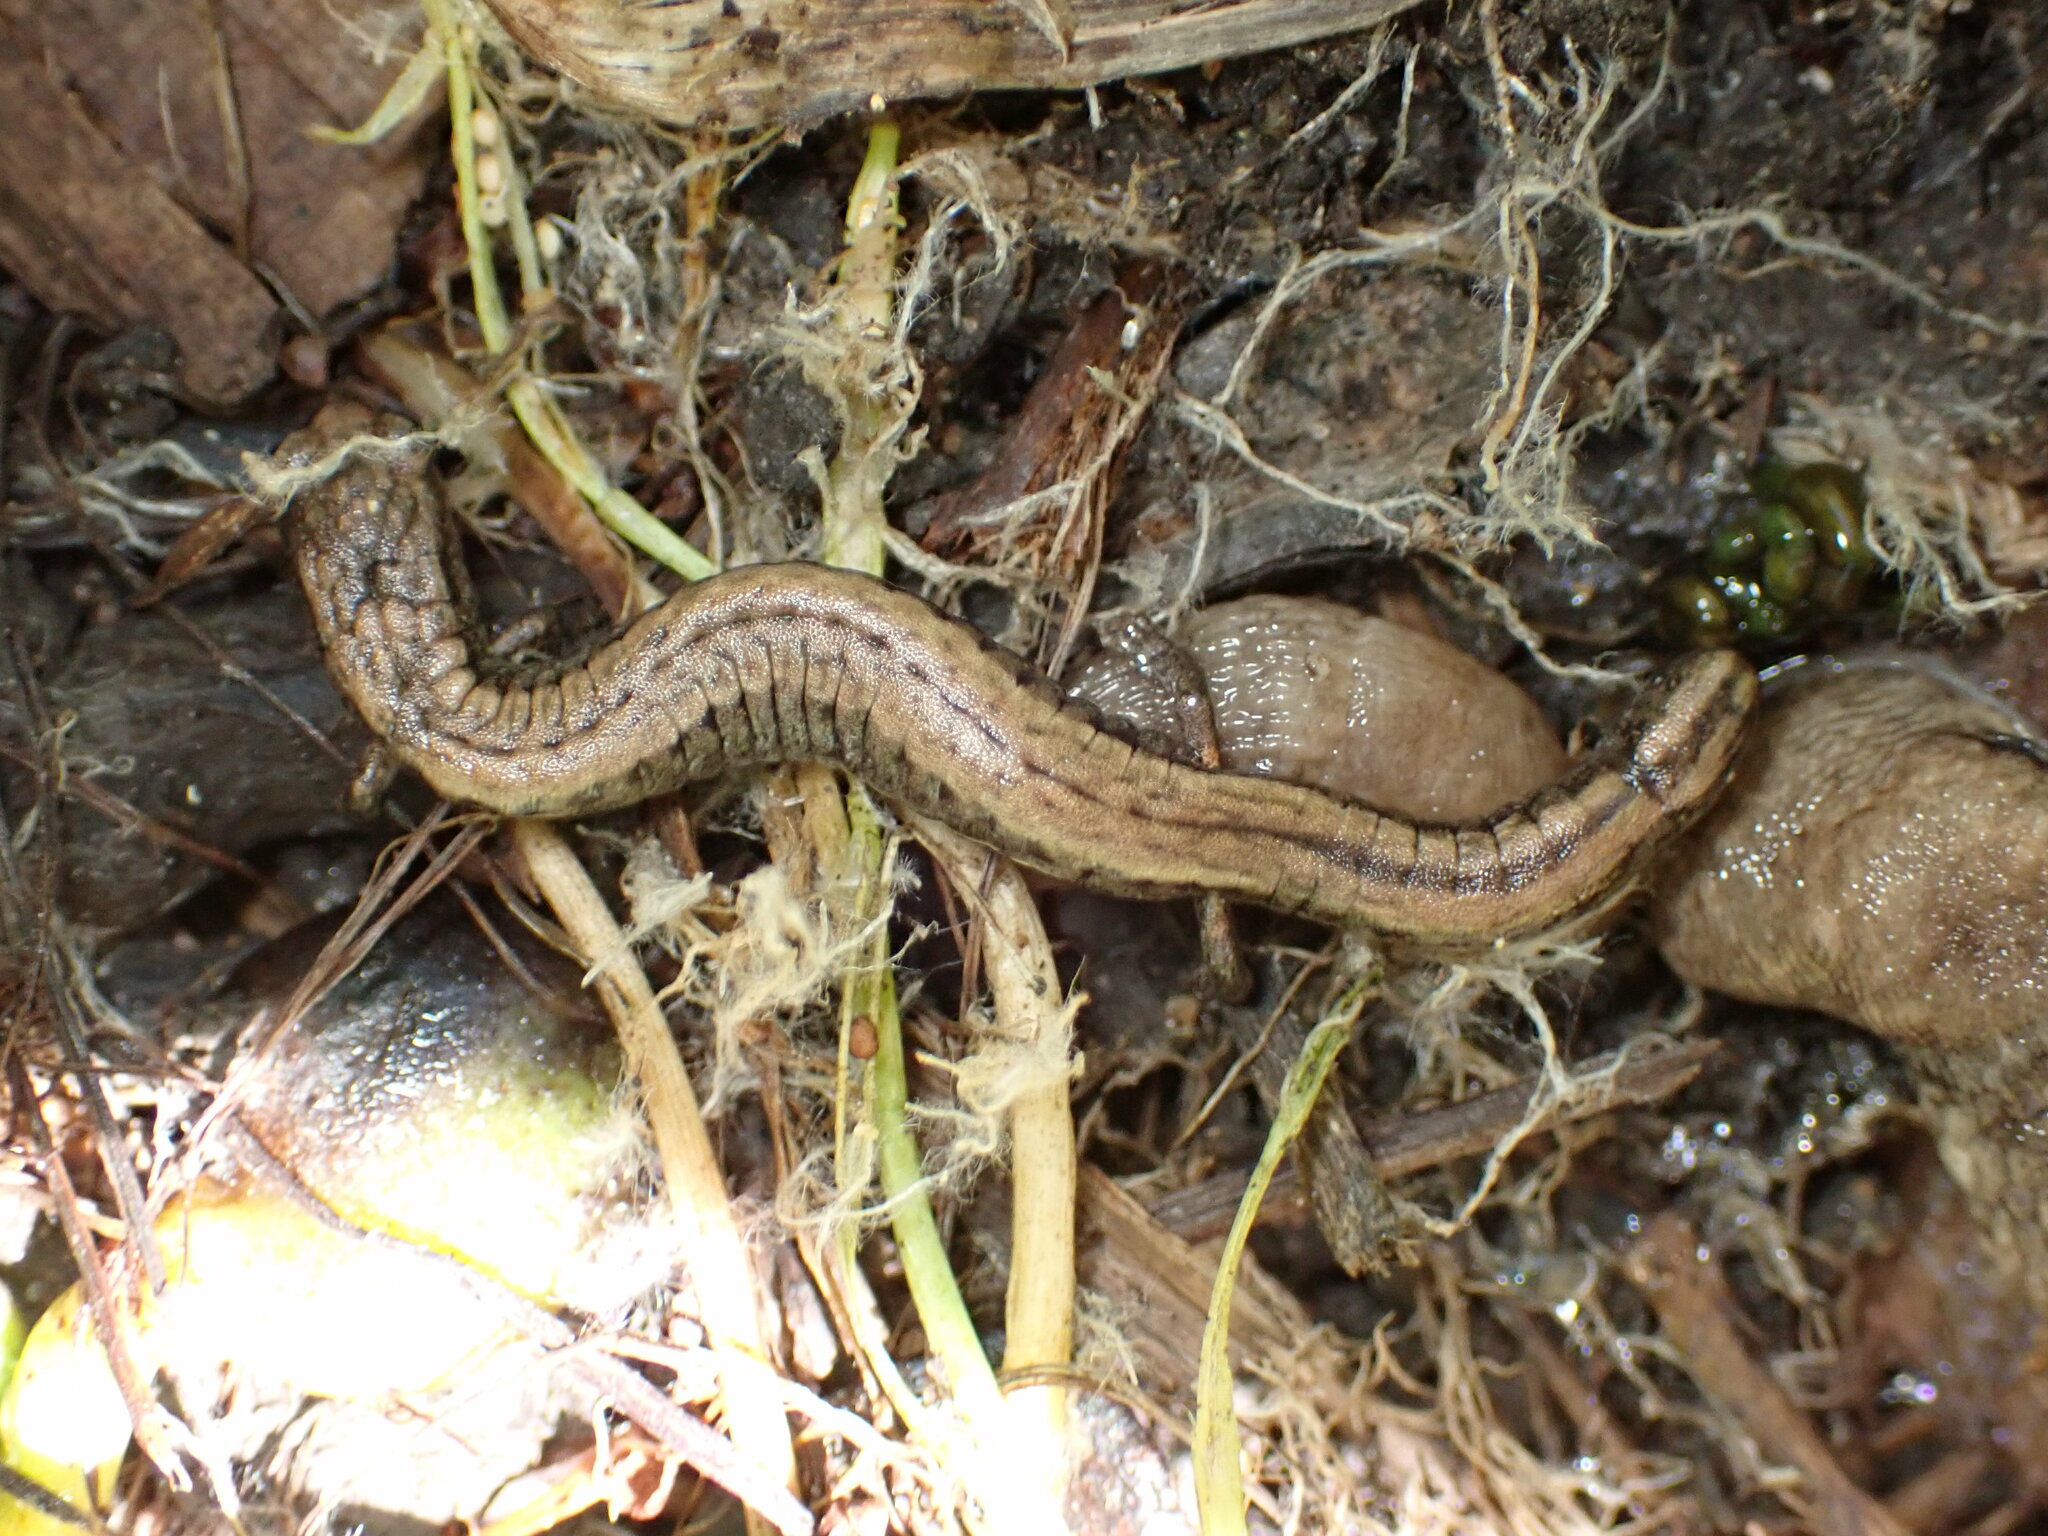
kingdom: Animalia
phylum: Chordata
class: Amphibia
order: Caudata
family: Plethodontidae
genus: Batrachoseps
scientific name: Batrachoseps attenuatus
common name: California slender salamander
